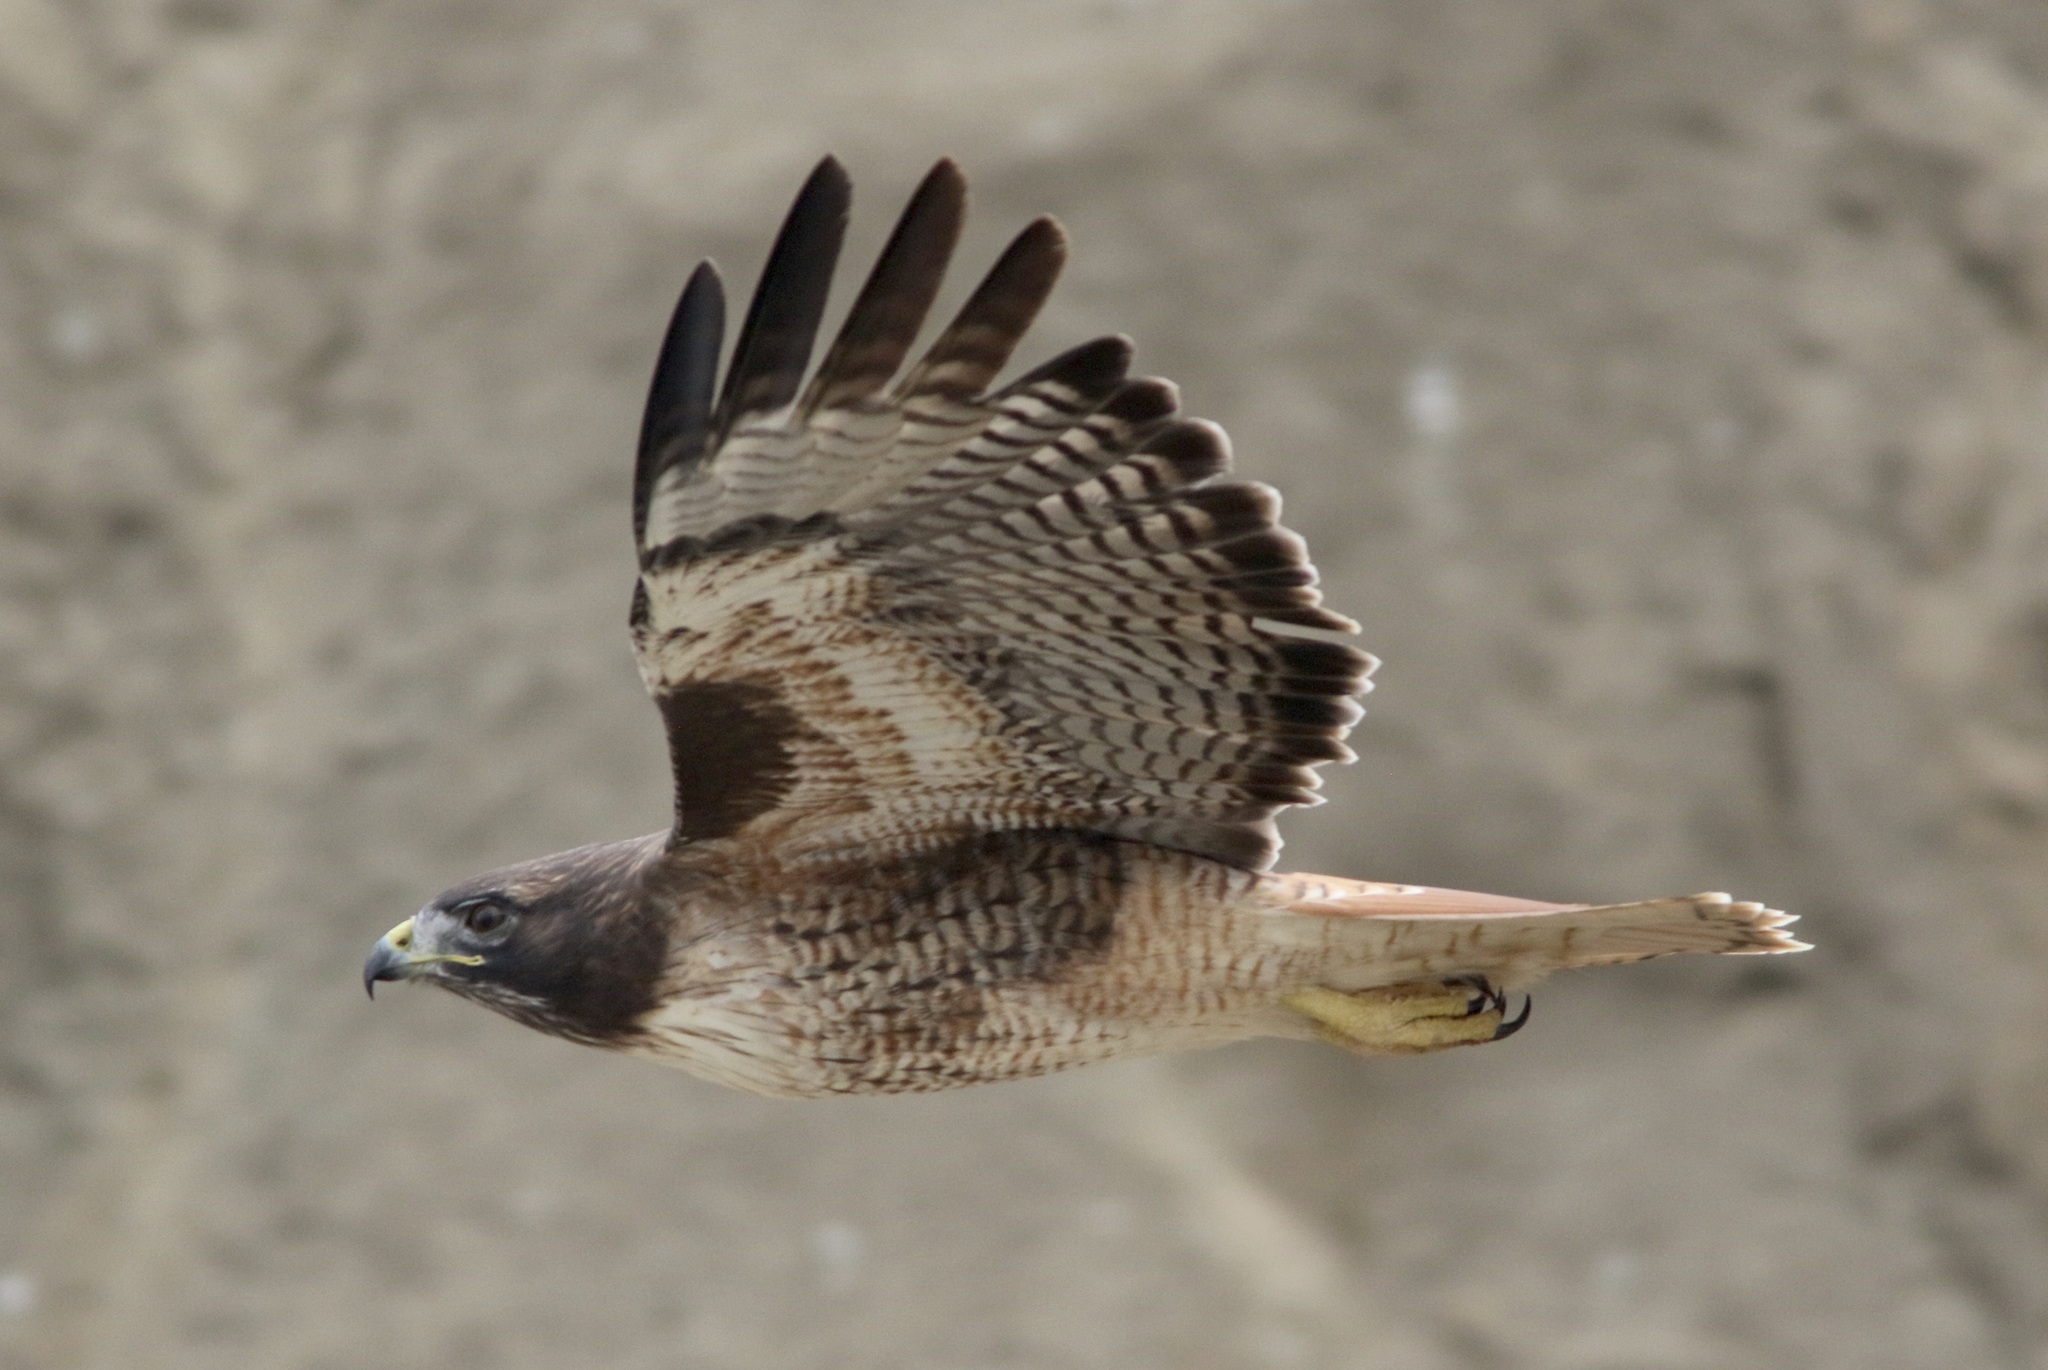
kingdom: Animalia
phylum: Chordata
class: Aves
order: Accipitriformes
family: Accipitridae
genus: Buteo
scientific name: Buteo jamaicensis
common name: Red-tailed hawk
